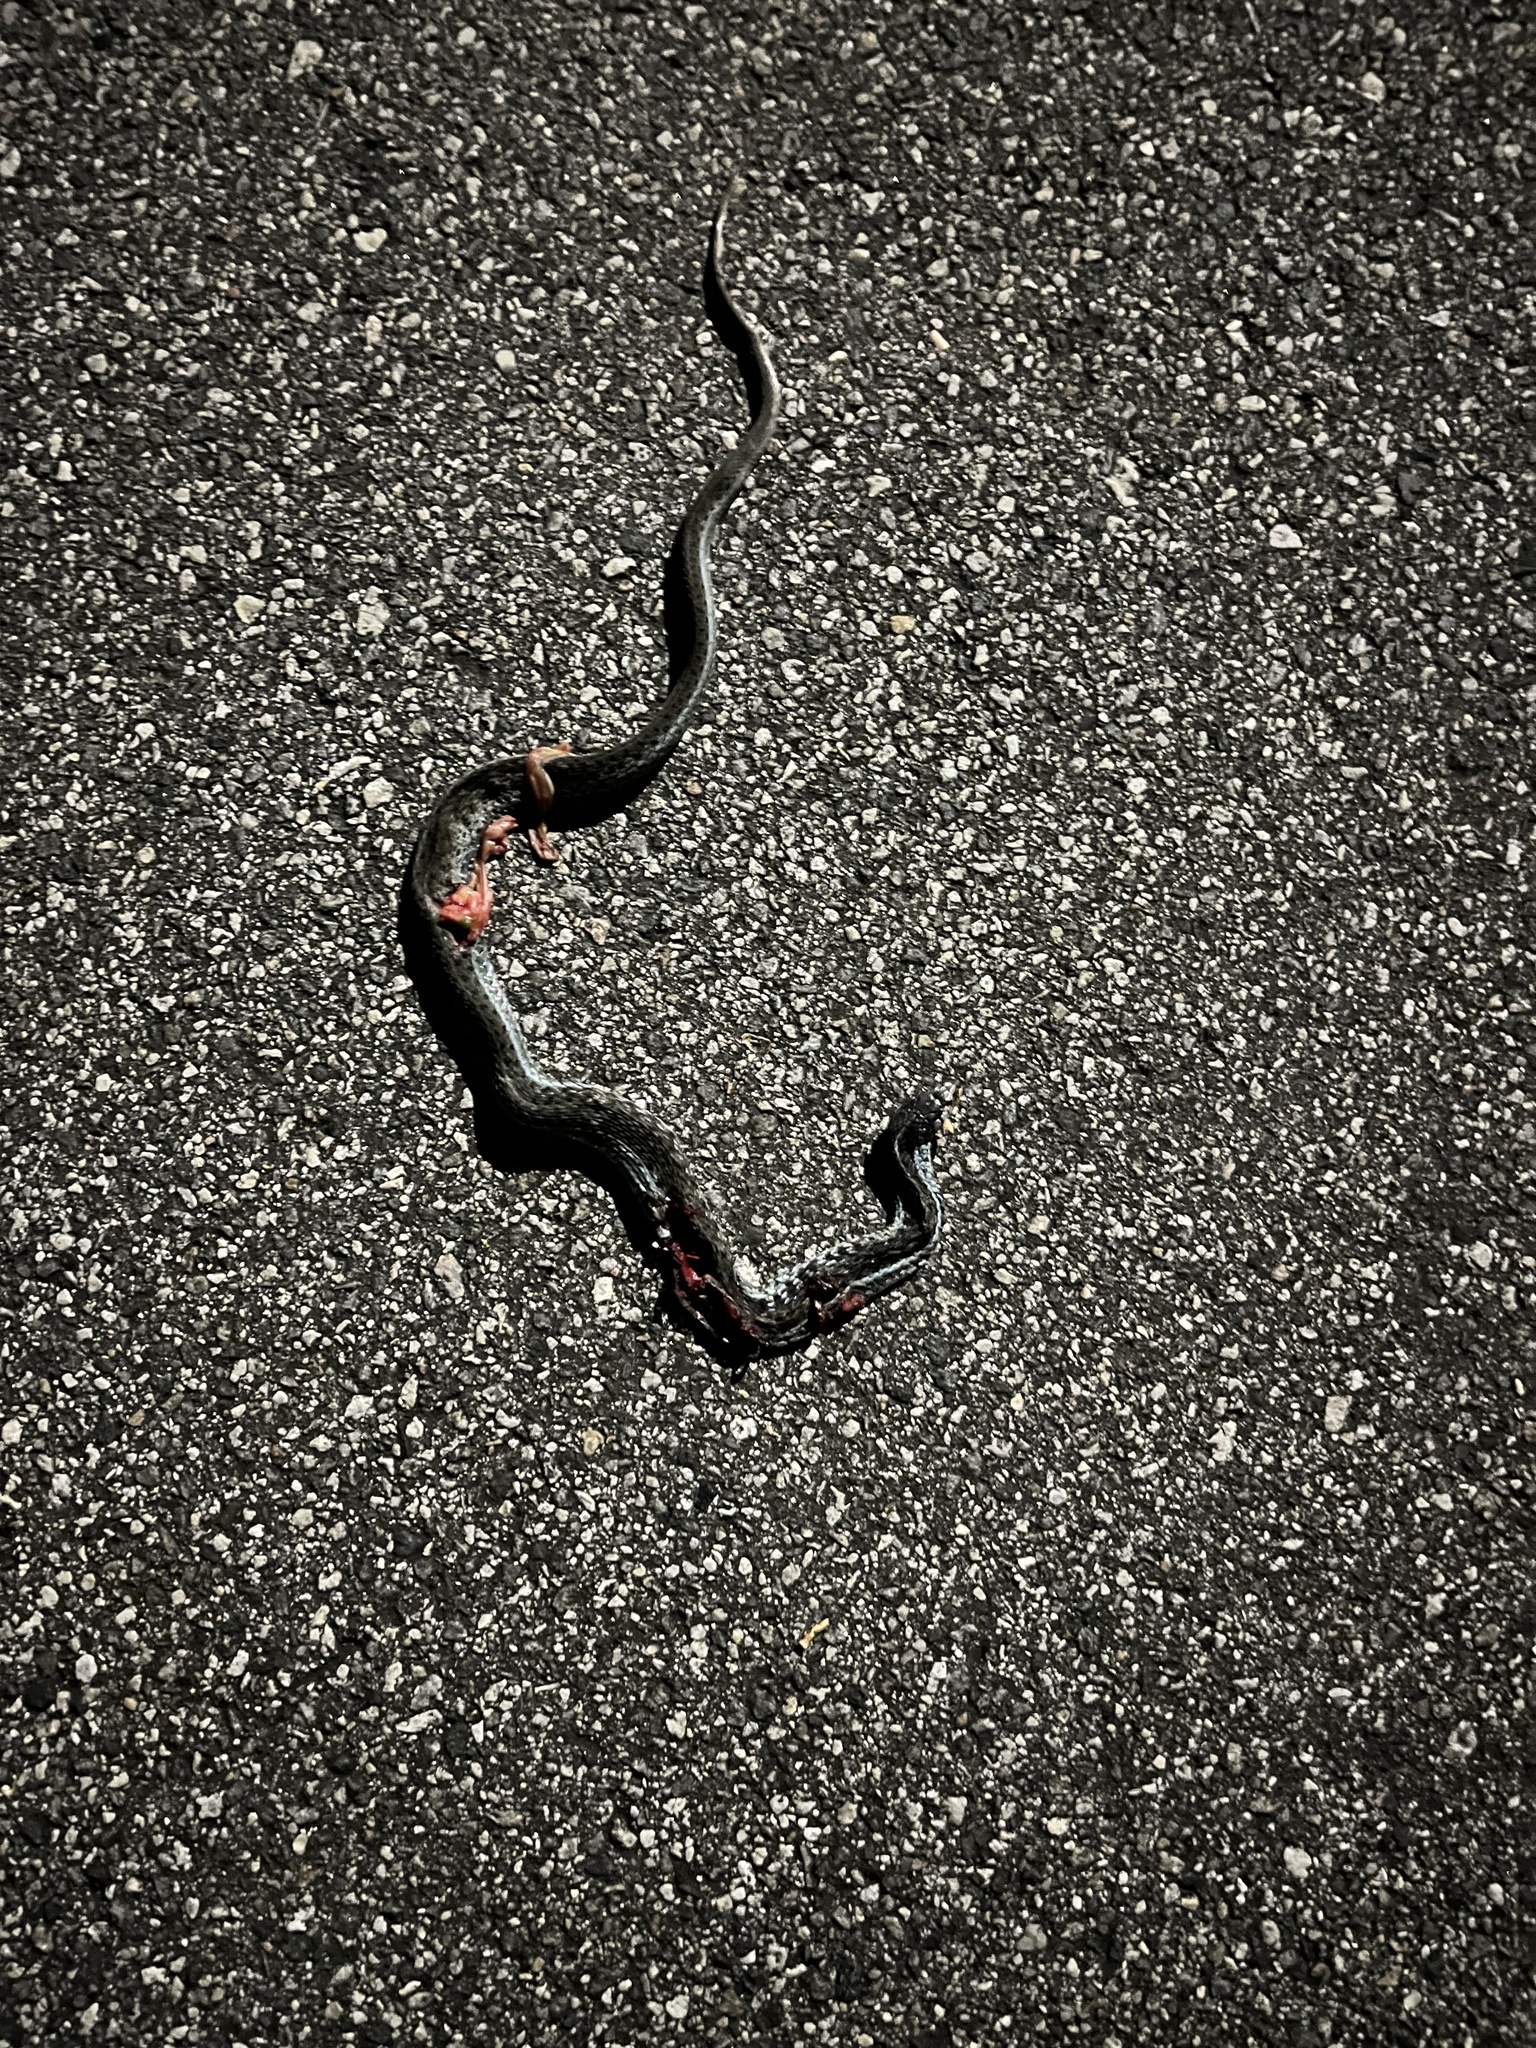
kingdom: Animalia
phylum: Chordata
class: Squamata
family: Colubridae
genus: Thamnophis
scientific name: Thamnophis sirtalis
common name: Common garter snake
